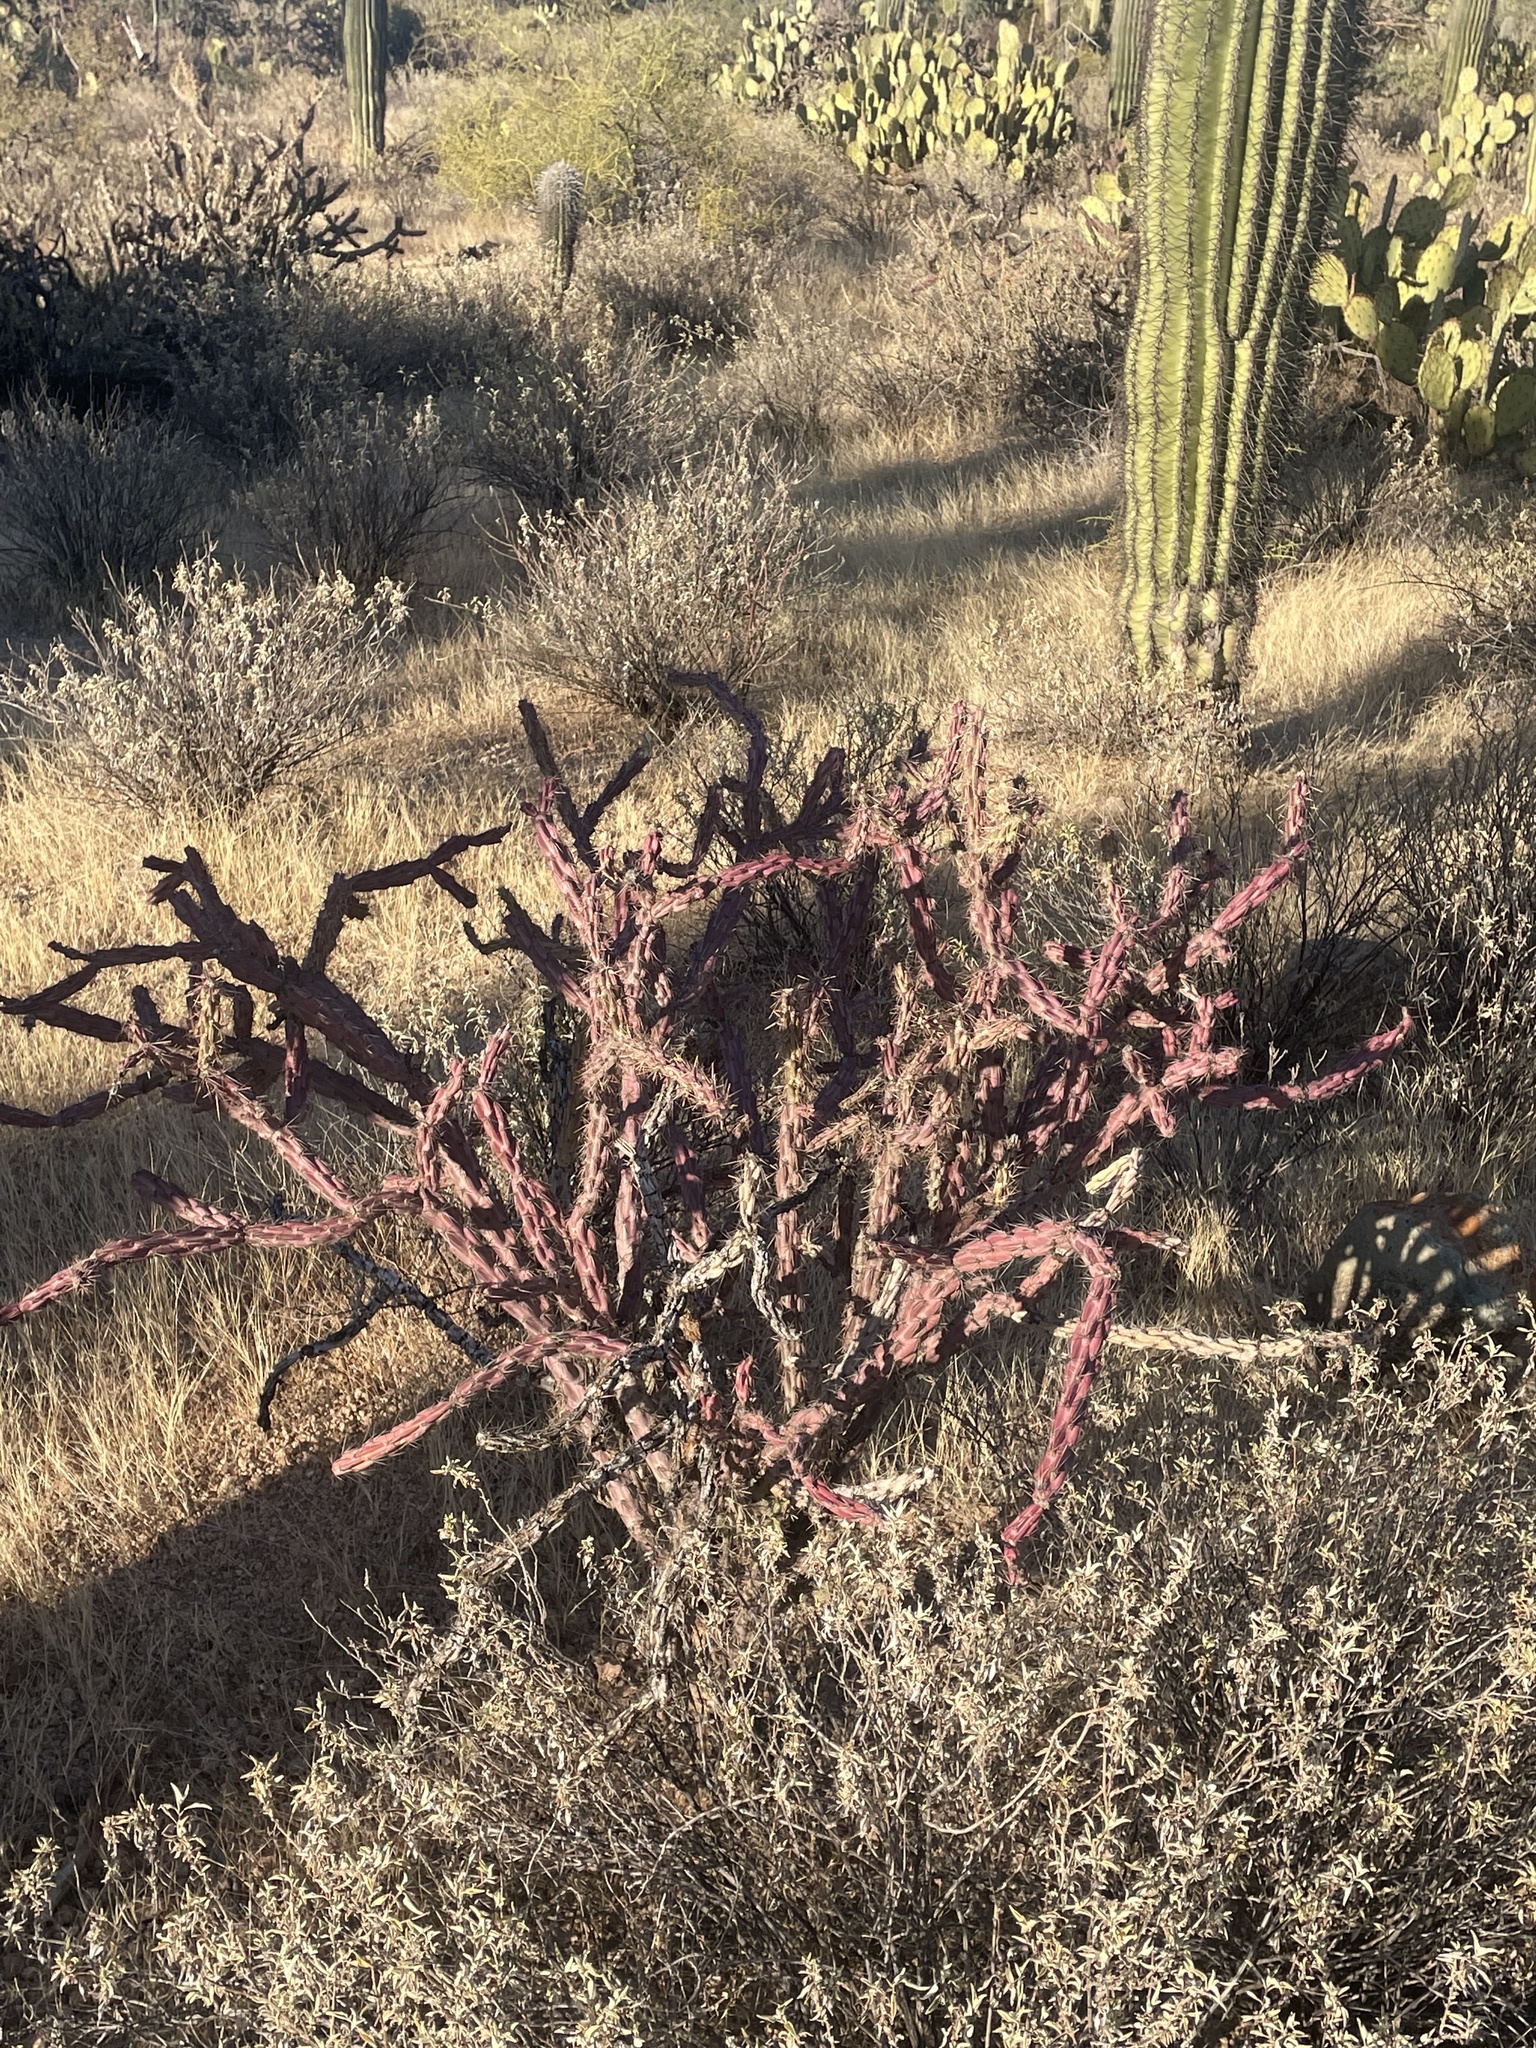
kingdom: Plantae
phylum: Tracheophyta
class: Magnoliopsida
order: Caryophyllales
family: Cactaceae
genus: Cylindropuntia
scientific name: Cylindropuntia thurberi
